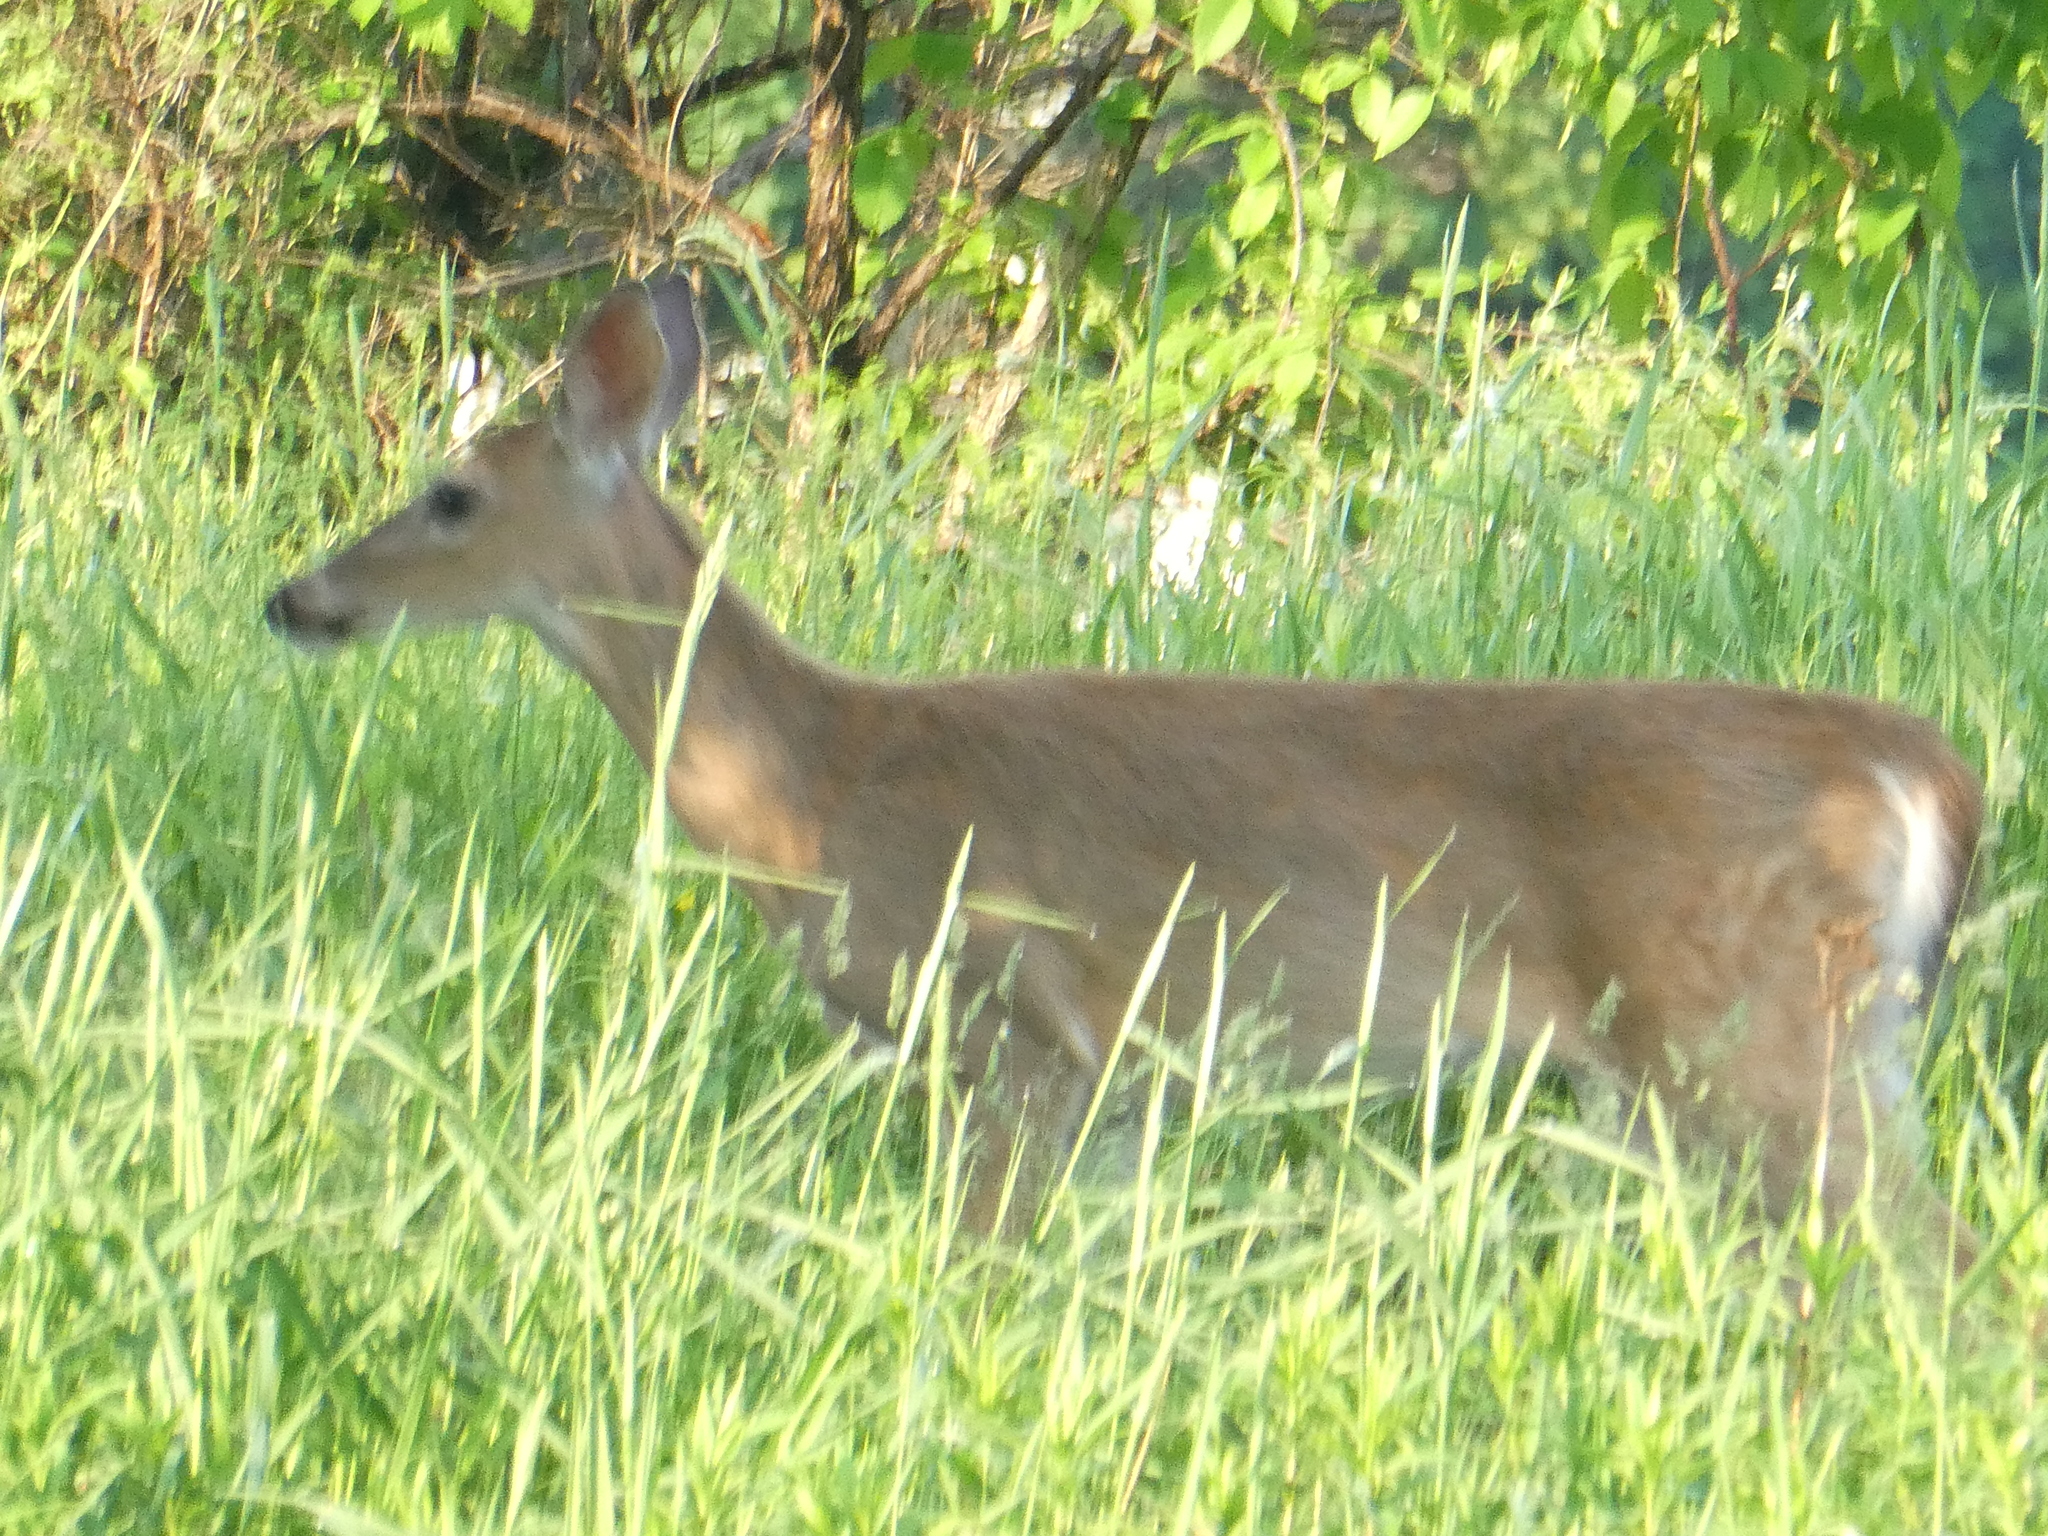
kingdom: Animalia
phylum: Chordata
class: Mammalia
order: Artiodactyla
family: Cervidae
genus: Odocoileus
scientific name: Odocoileus virginianus
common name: White-tailed deer
